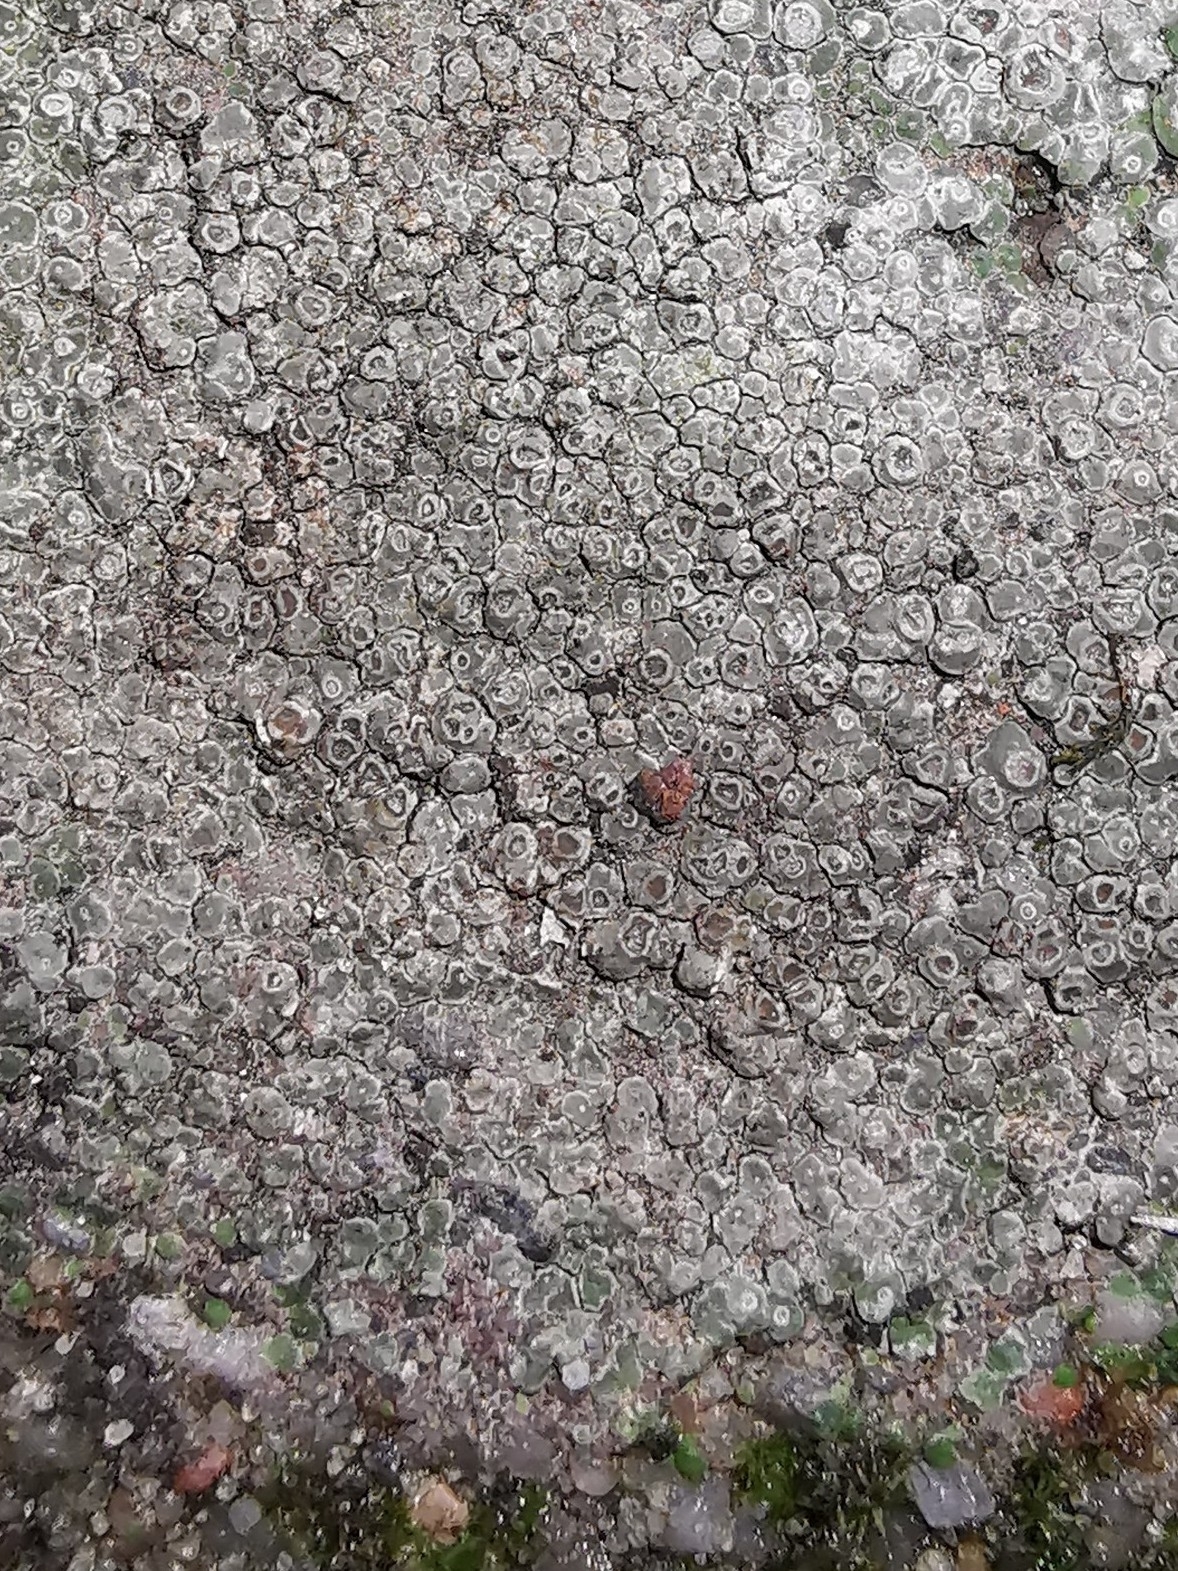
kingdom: Fungi
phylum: Ascomycota
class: Lecanoromycetes
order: Pertusariales
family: Megasporaceae
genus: Circinaria
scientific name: Circinaria contorta
